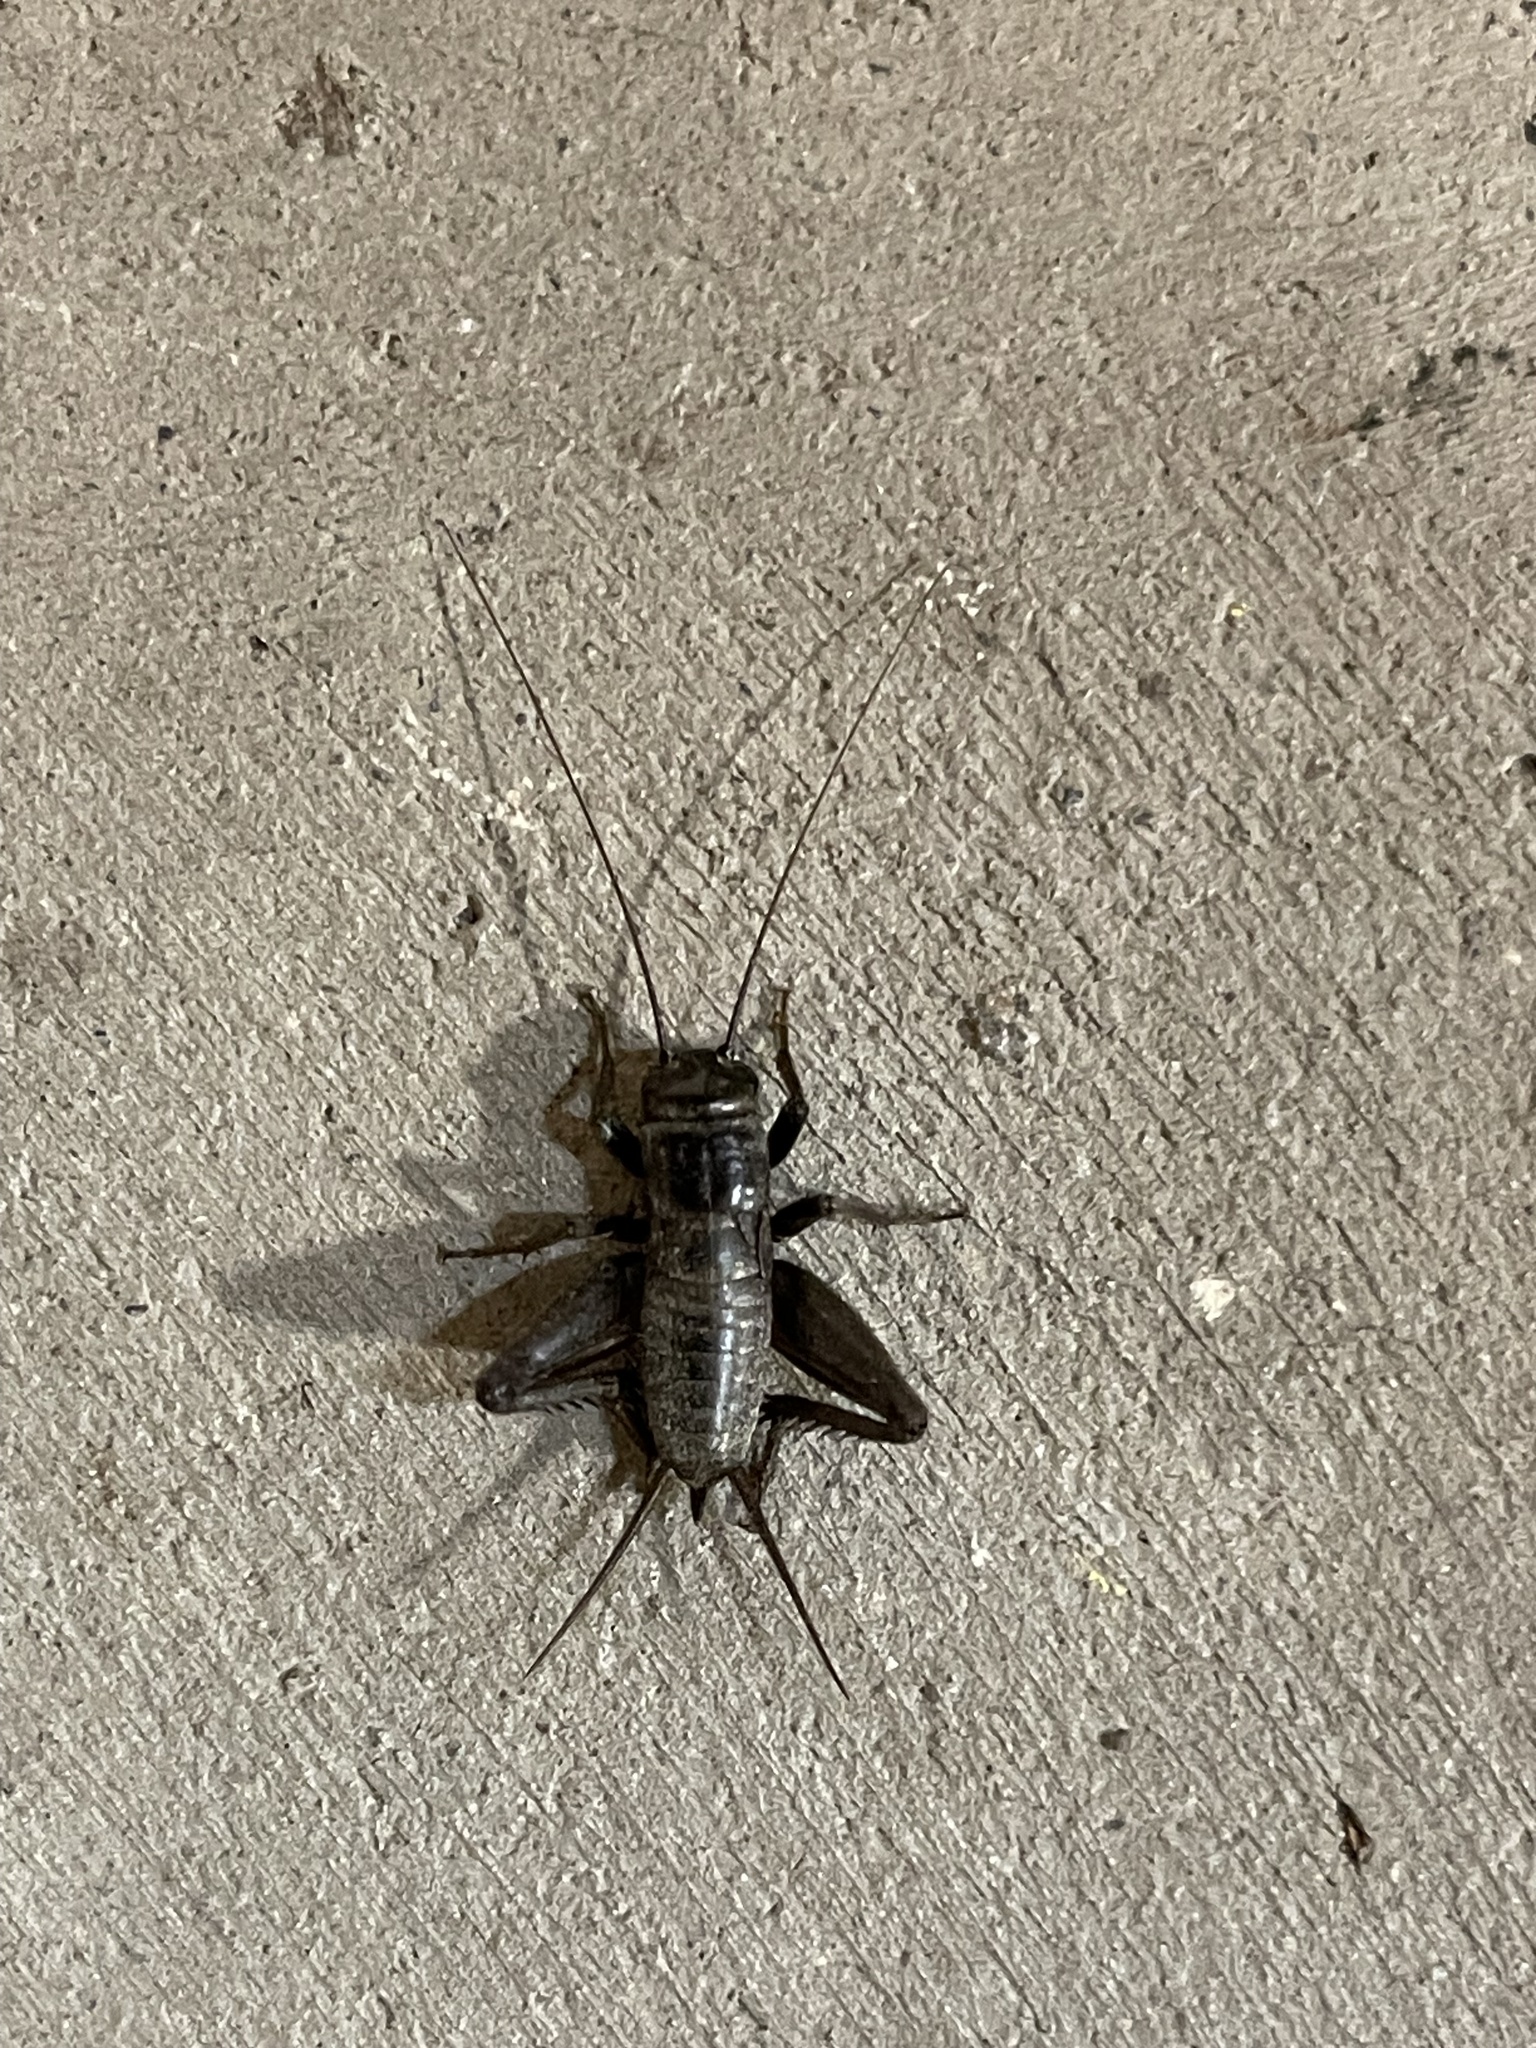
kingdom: Animalia
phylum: Arthropoda
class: Insecta
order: Orthoptera
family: Gryllidae
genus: Gryllus
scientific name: Gryllus saxatilis
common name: Western rock-loving field cricket
